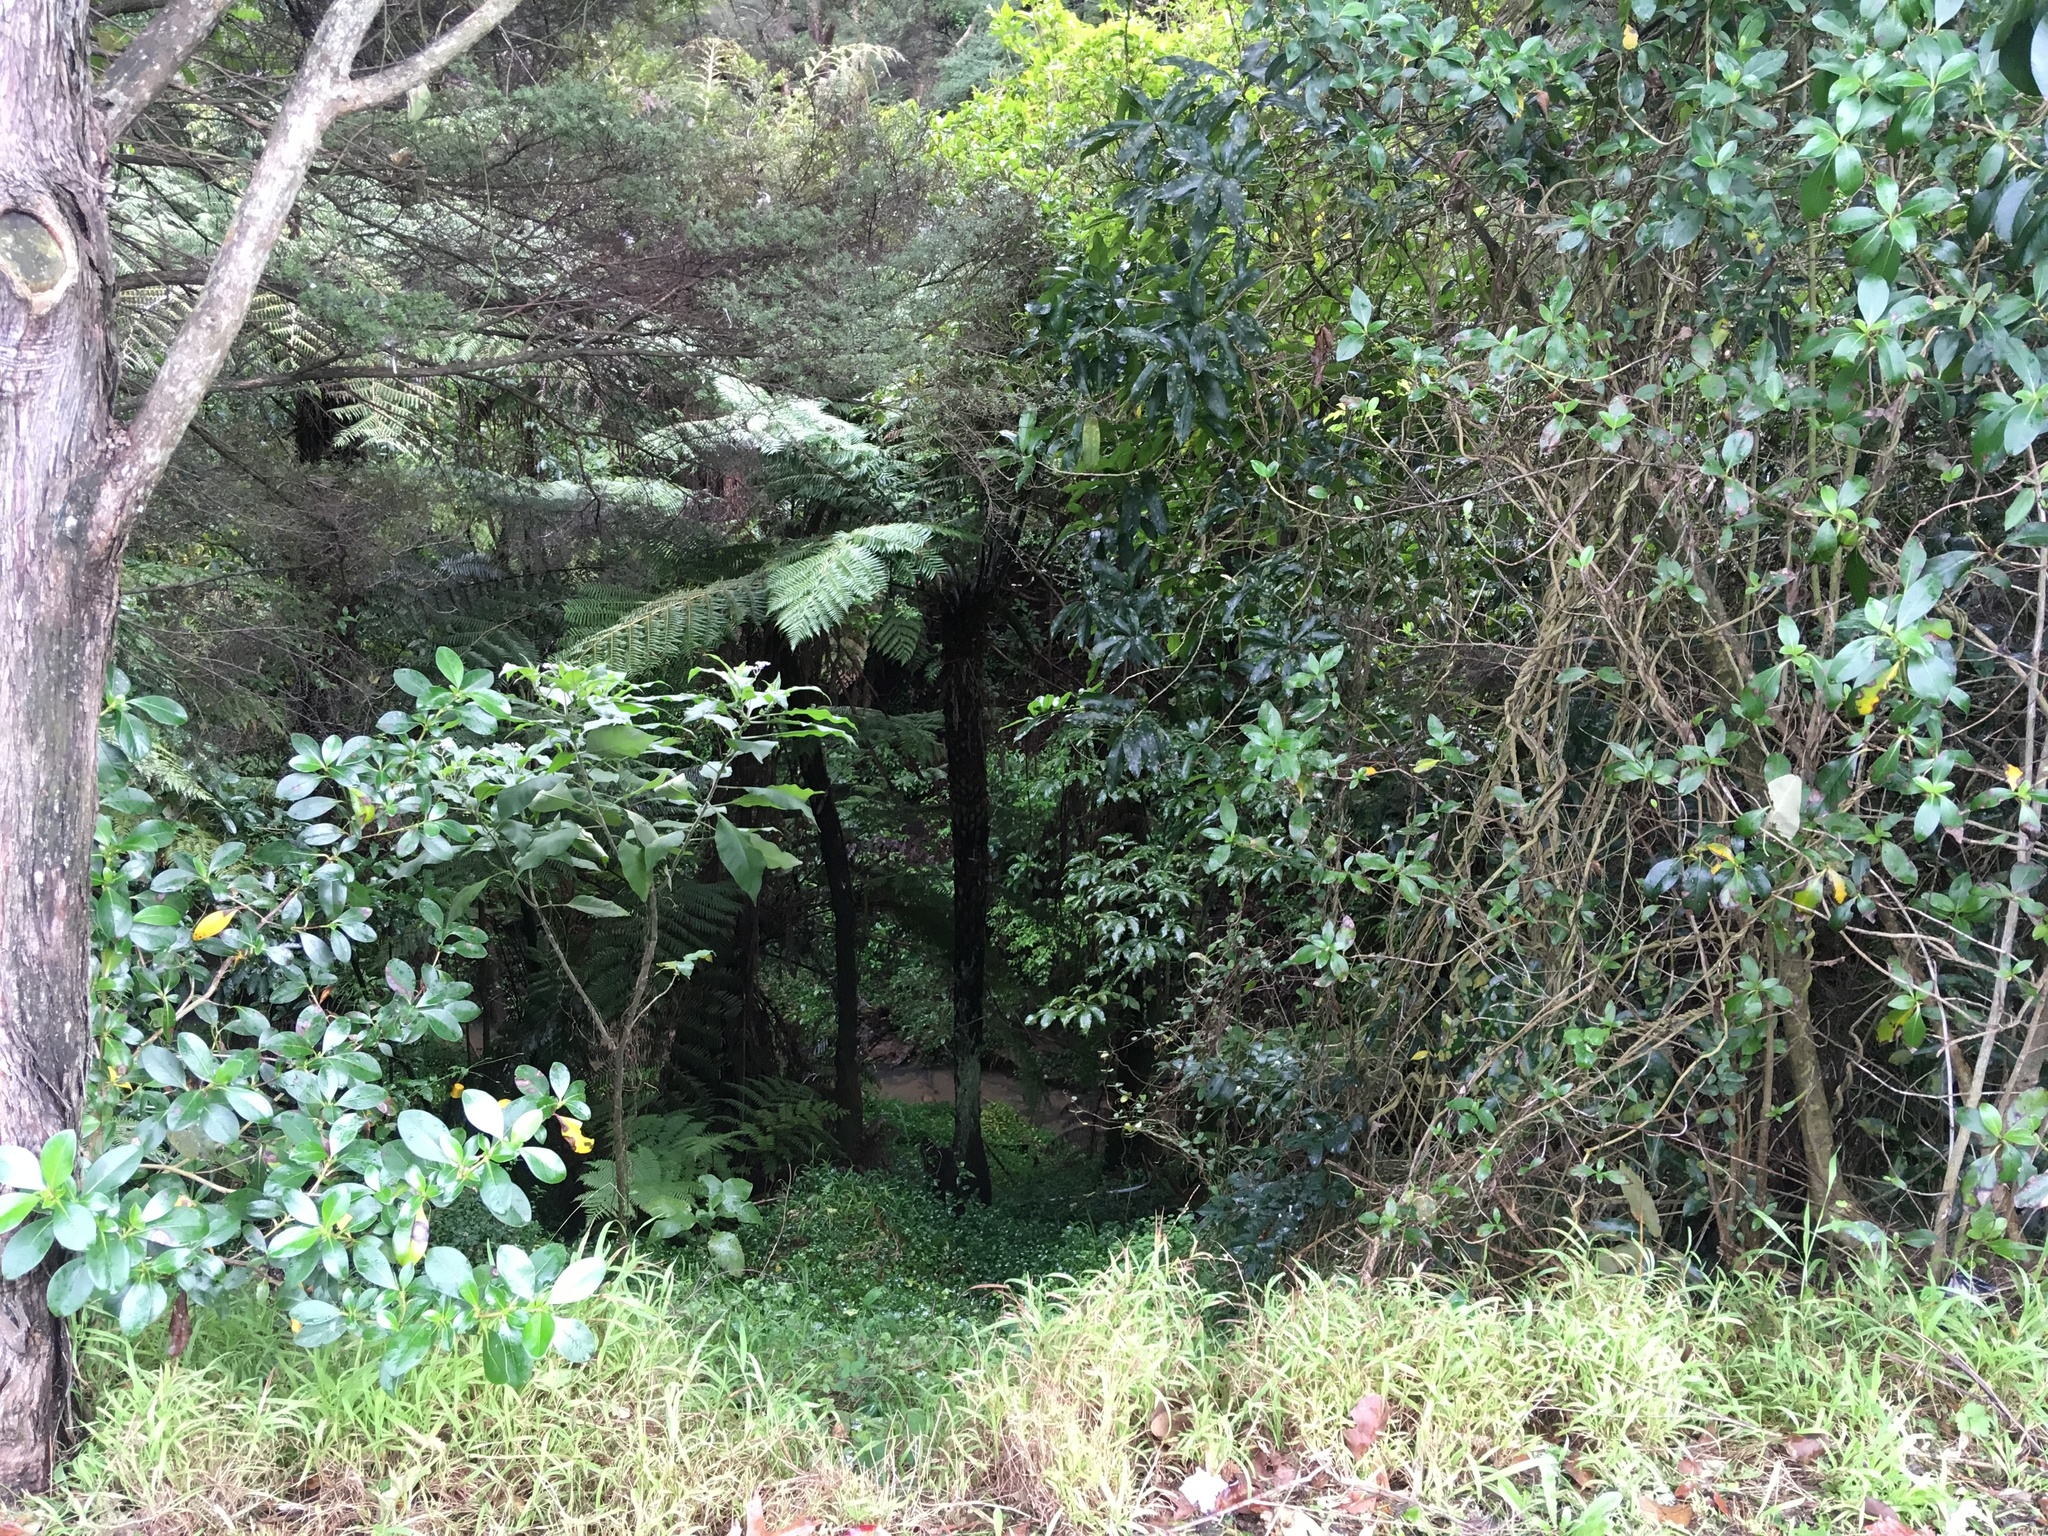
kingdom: Plantae
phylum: Tracheophyta
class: Magnoliopsida
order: Solanales
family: Solanaceae
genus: Solanum
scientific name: Solanum mauritianum
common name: Earleaf nightshade
